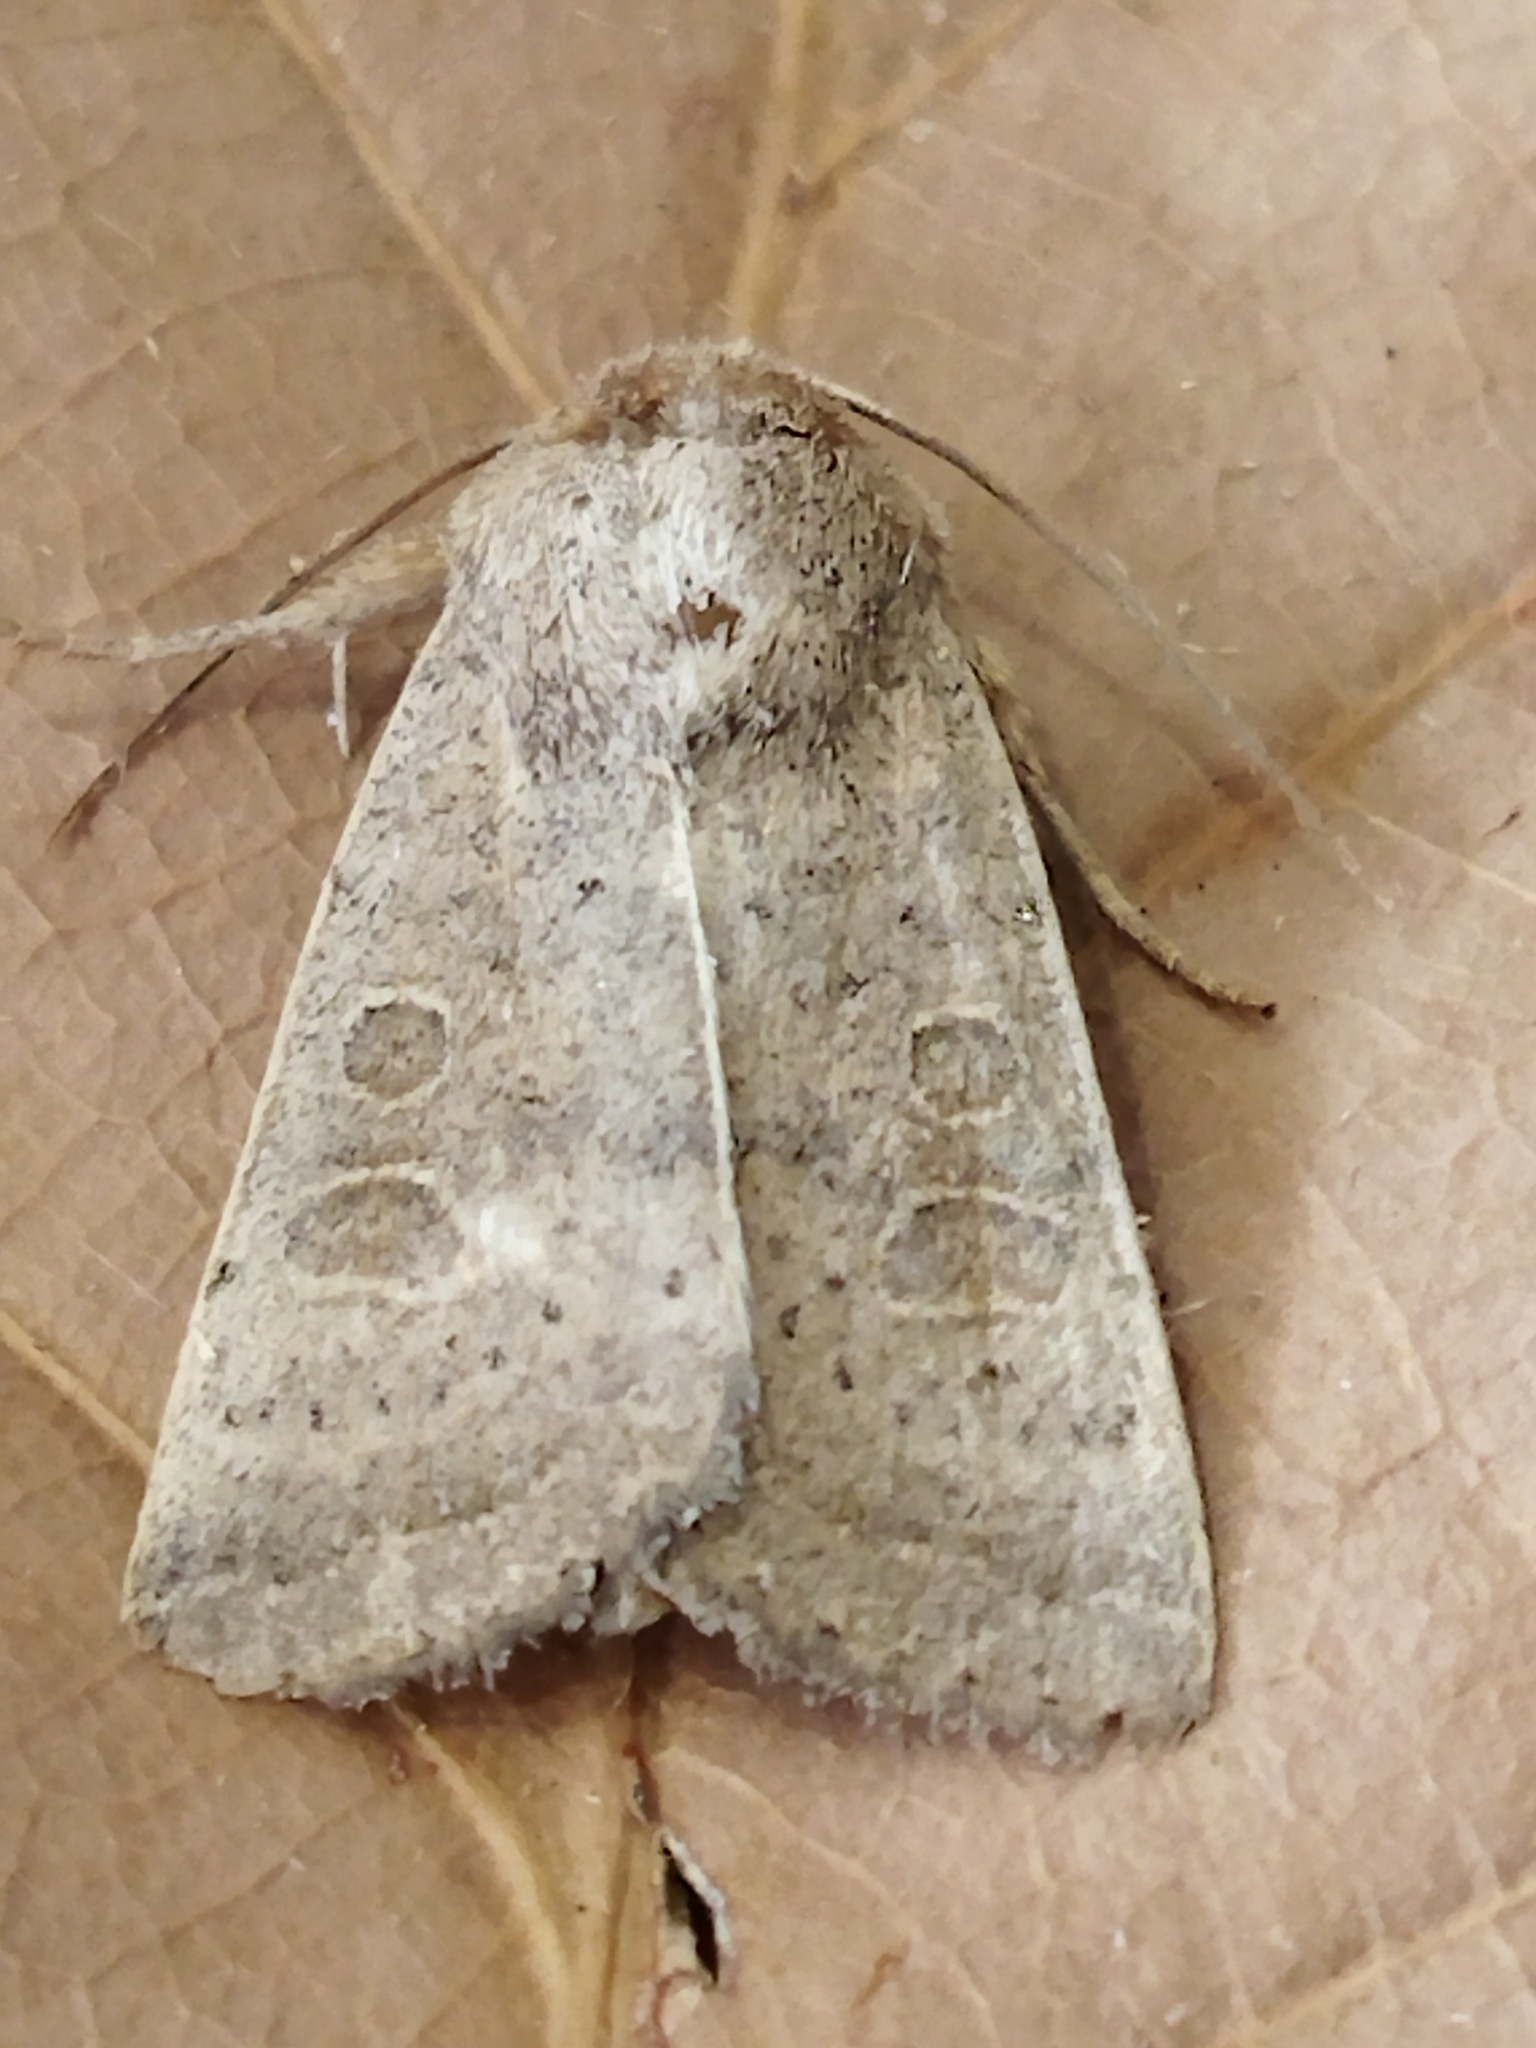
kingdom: Animalia
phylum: Arthropoda
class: Insecta
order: Lepidoptera
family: Noctuidae
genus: Hoplodrina
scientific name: Hoplodrina ambigua
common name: Vine's rustic
